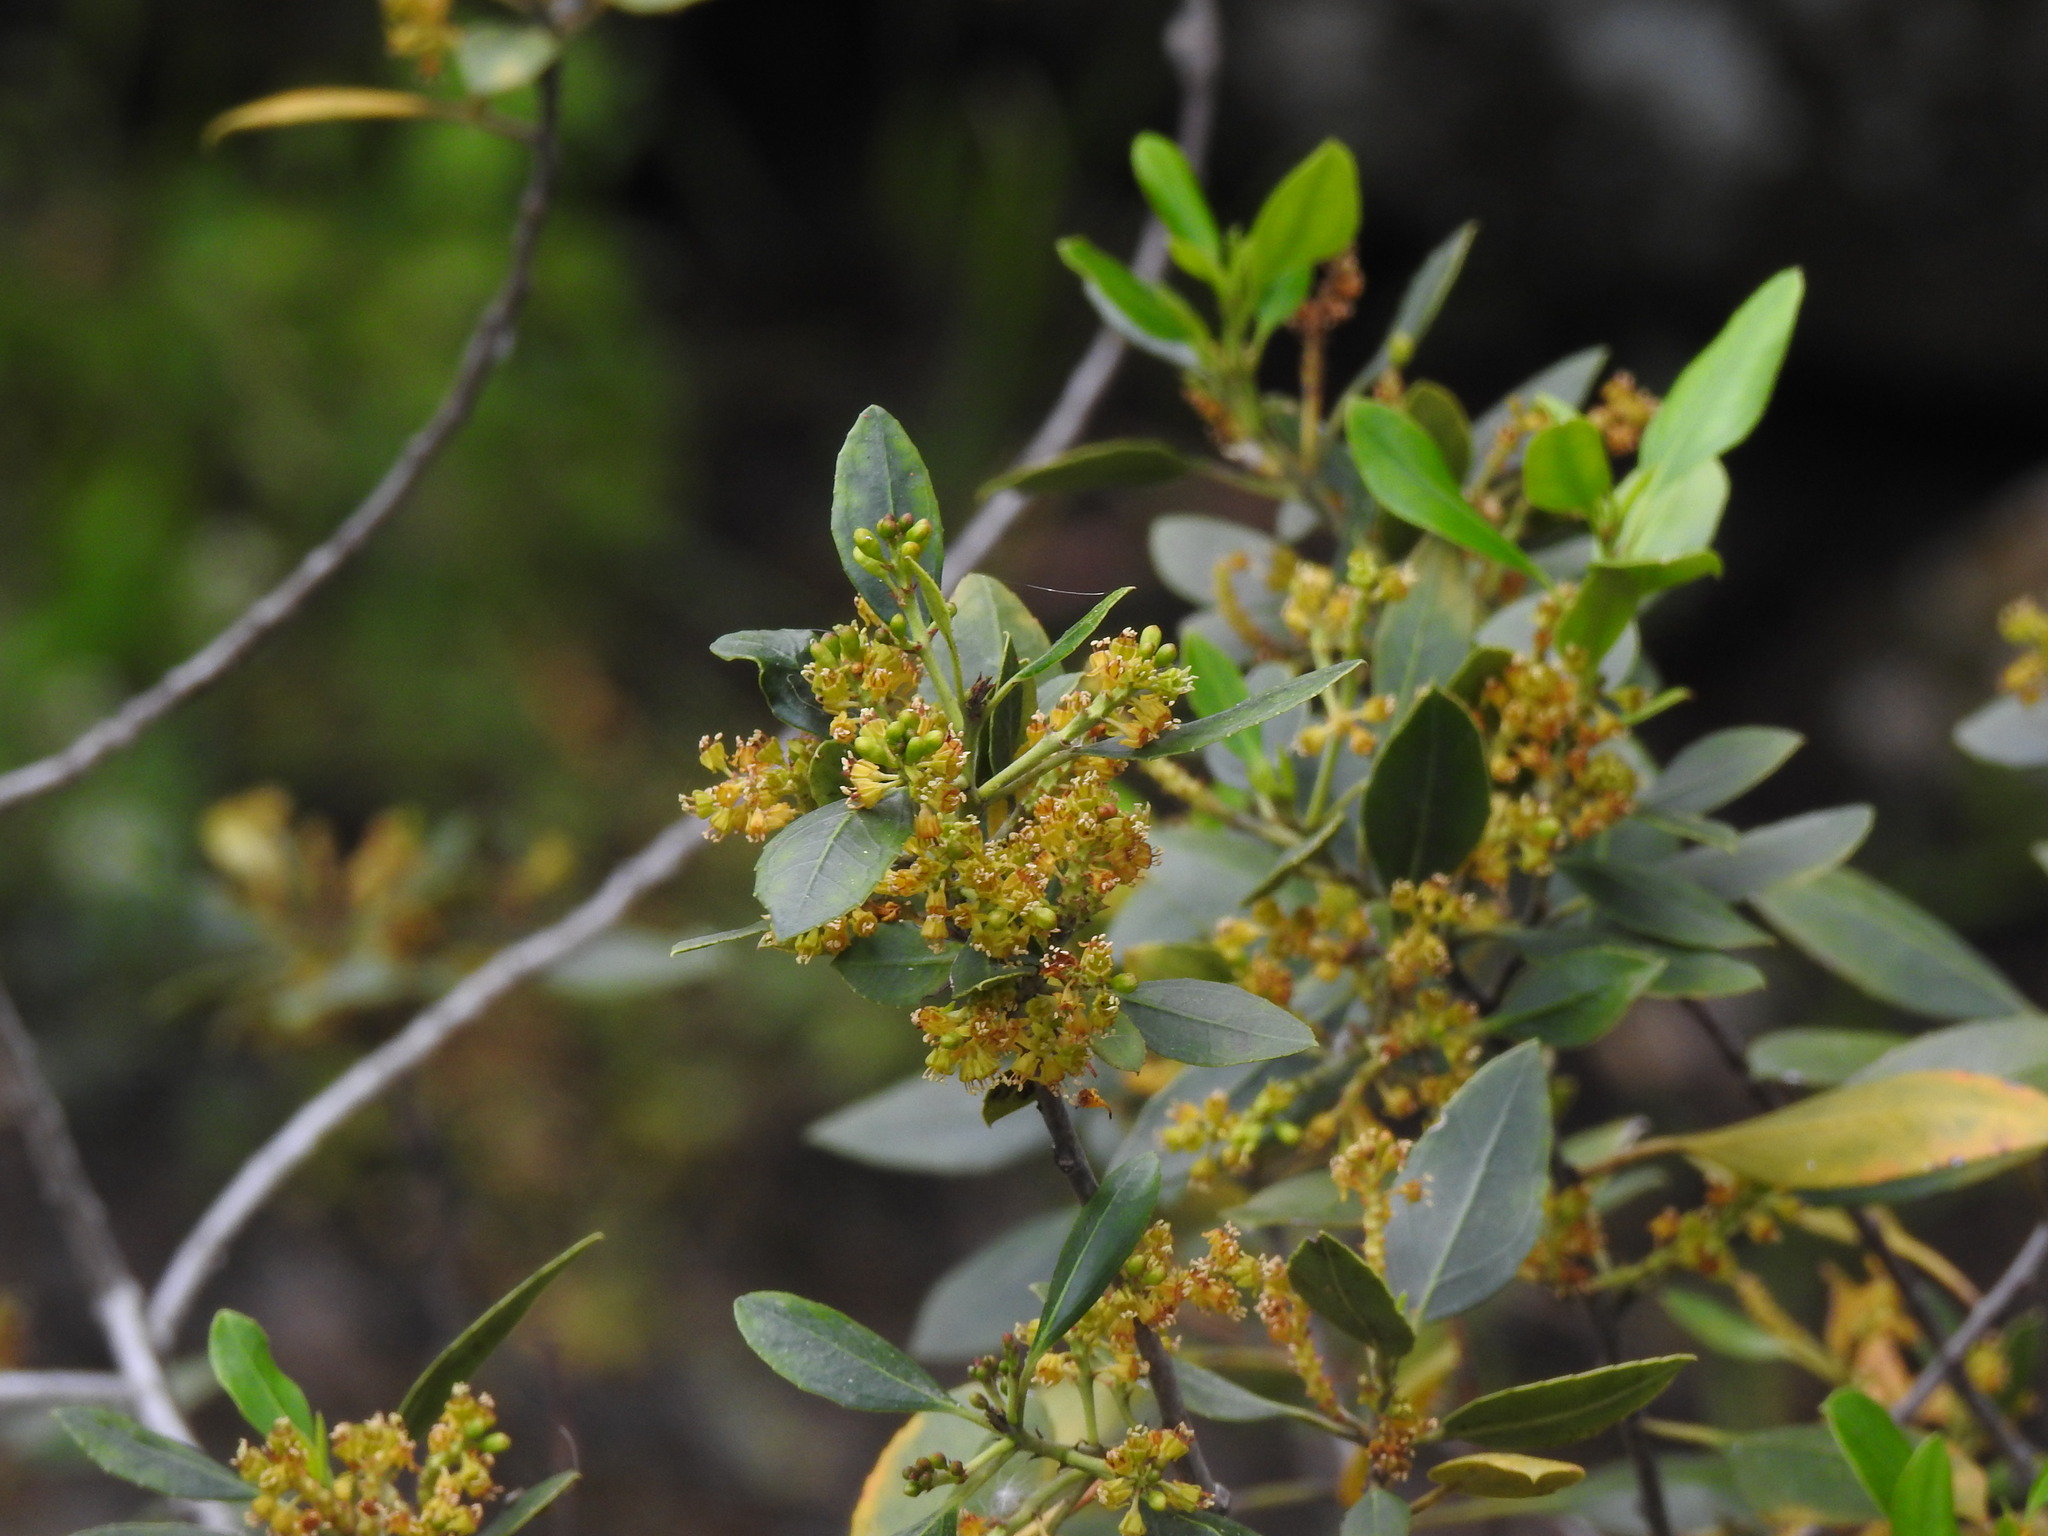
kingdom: Plantae
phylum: Tracheophyta
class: Magnoliopsida
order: Rosales
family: Rhamnaceae
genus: Rhamnus
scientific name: Rhamnus alaternus
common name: Mediterranean buckthorn
